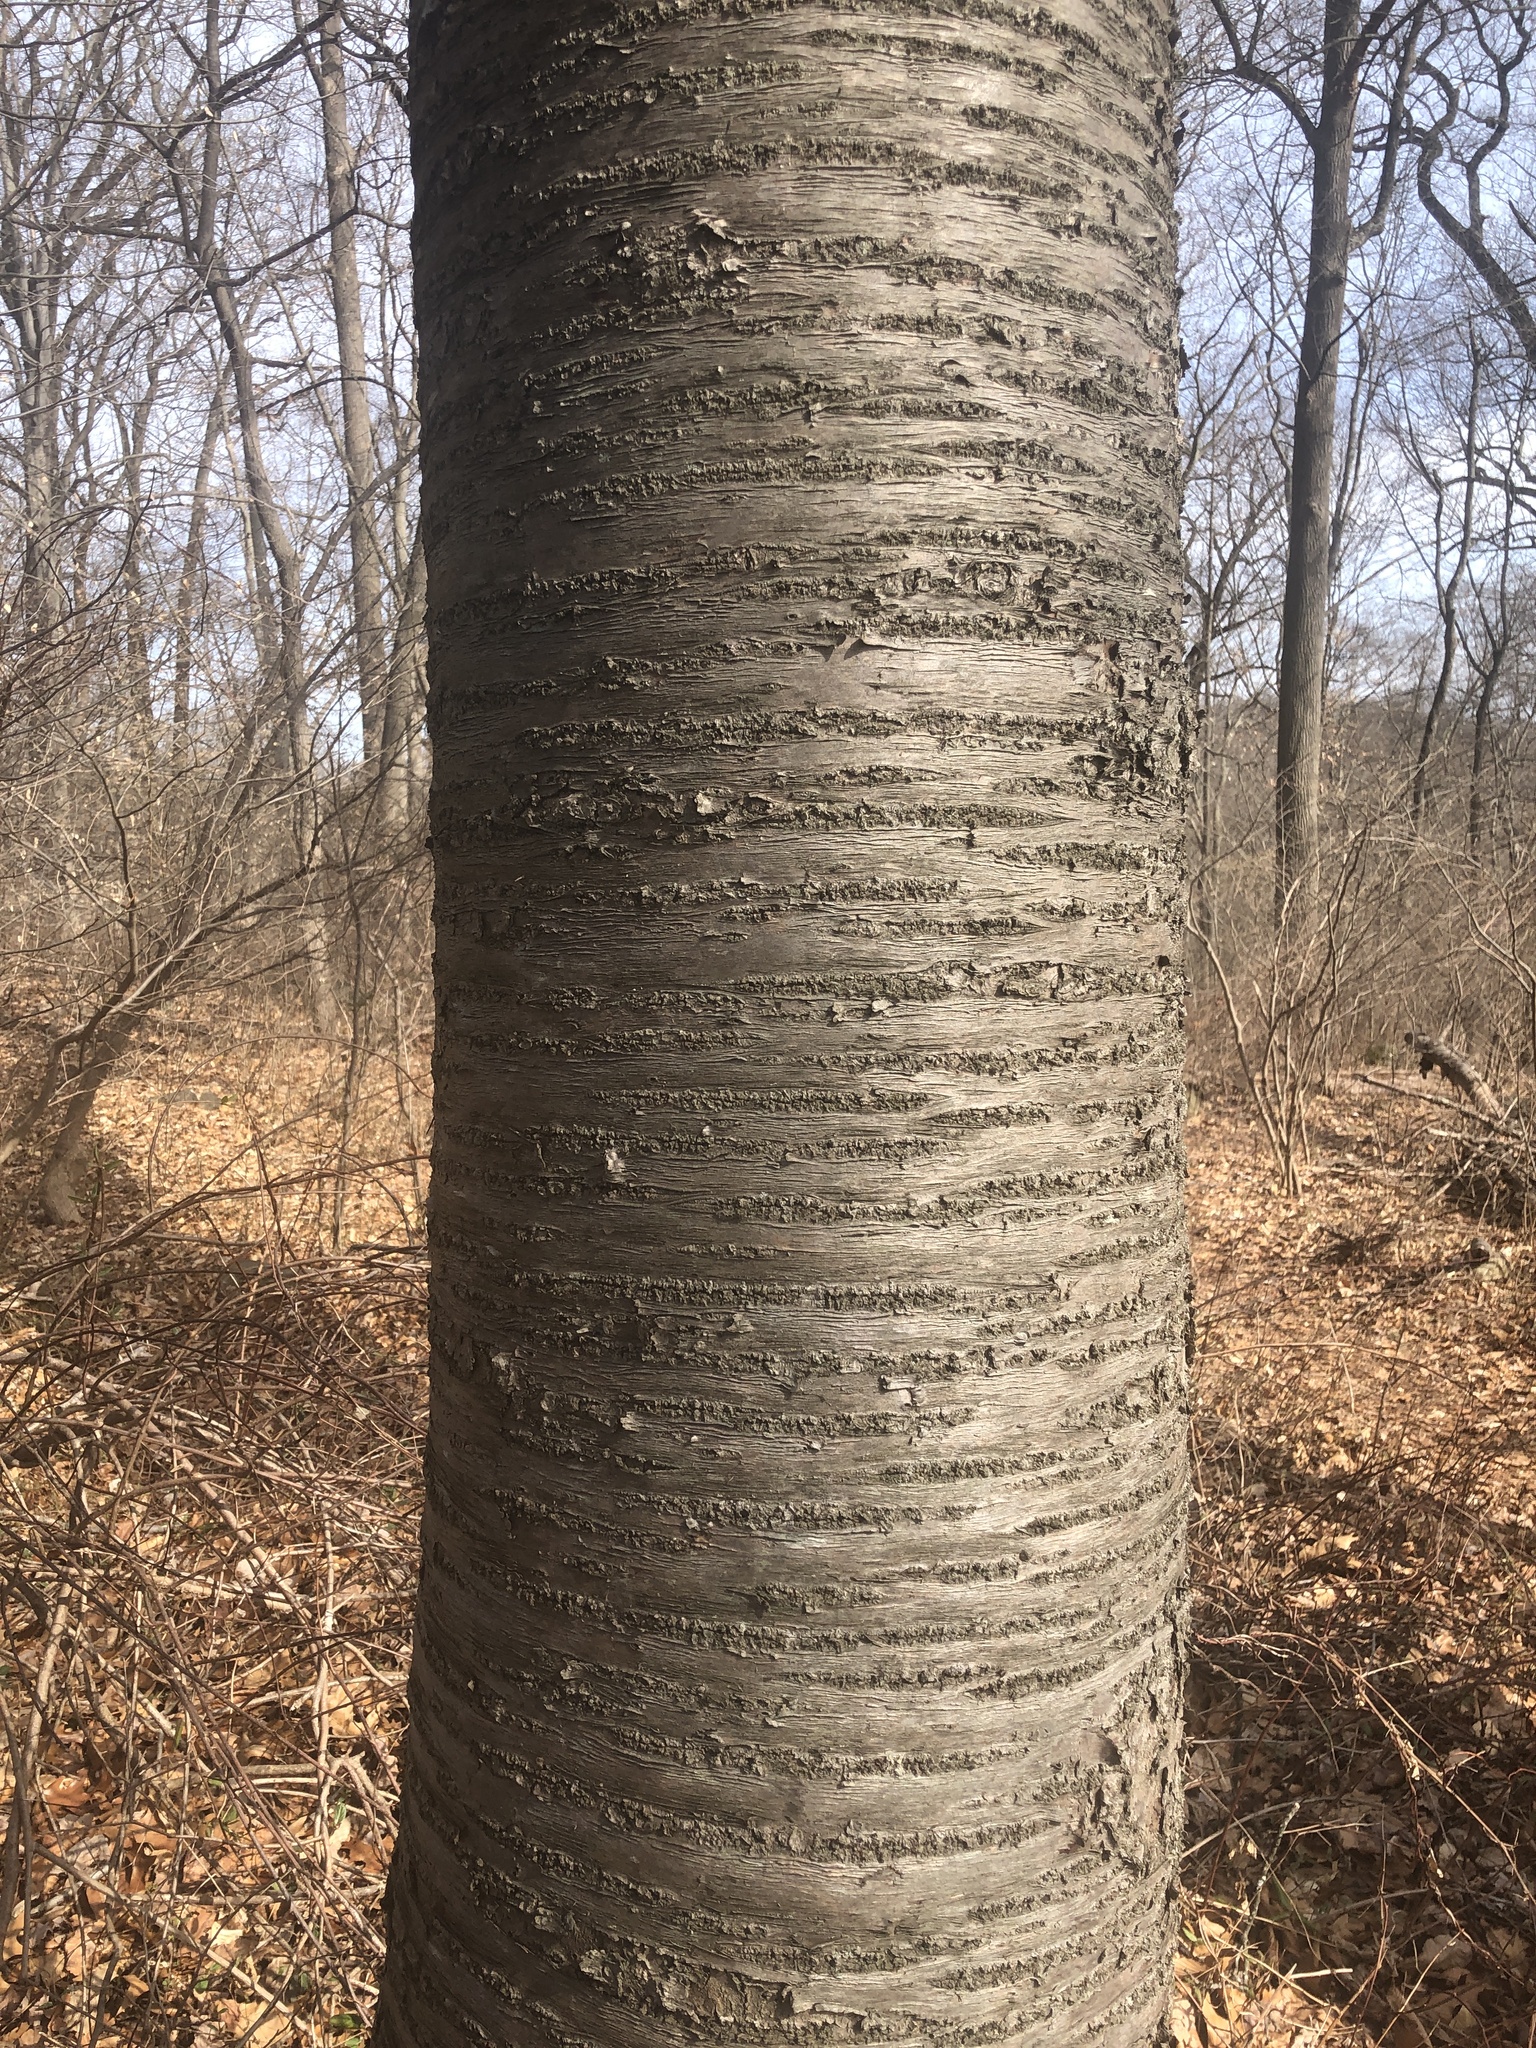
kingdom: Plantae
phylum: Tracheophyta
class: Magnoliopsida
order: Rosales
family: Rosaceae
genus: Prunus
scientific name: Prunus avium
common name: Sweet cherry
